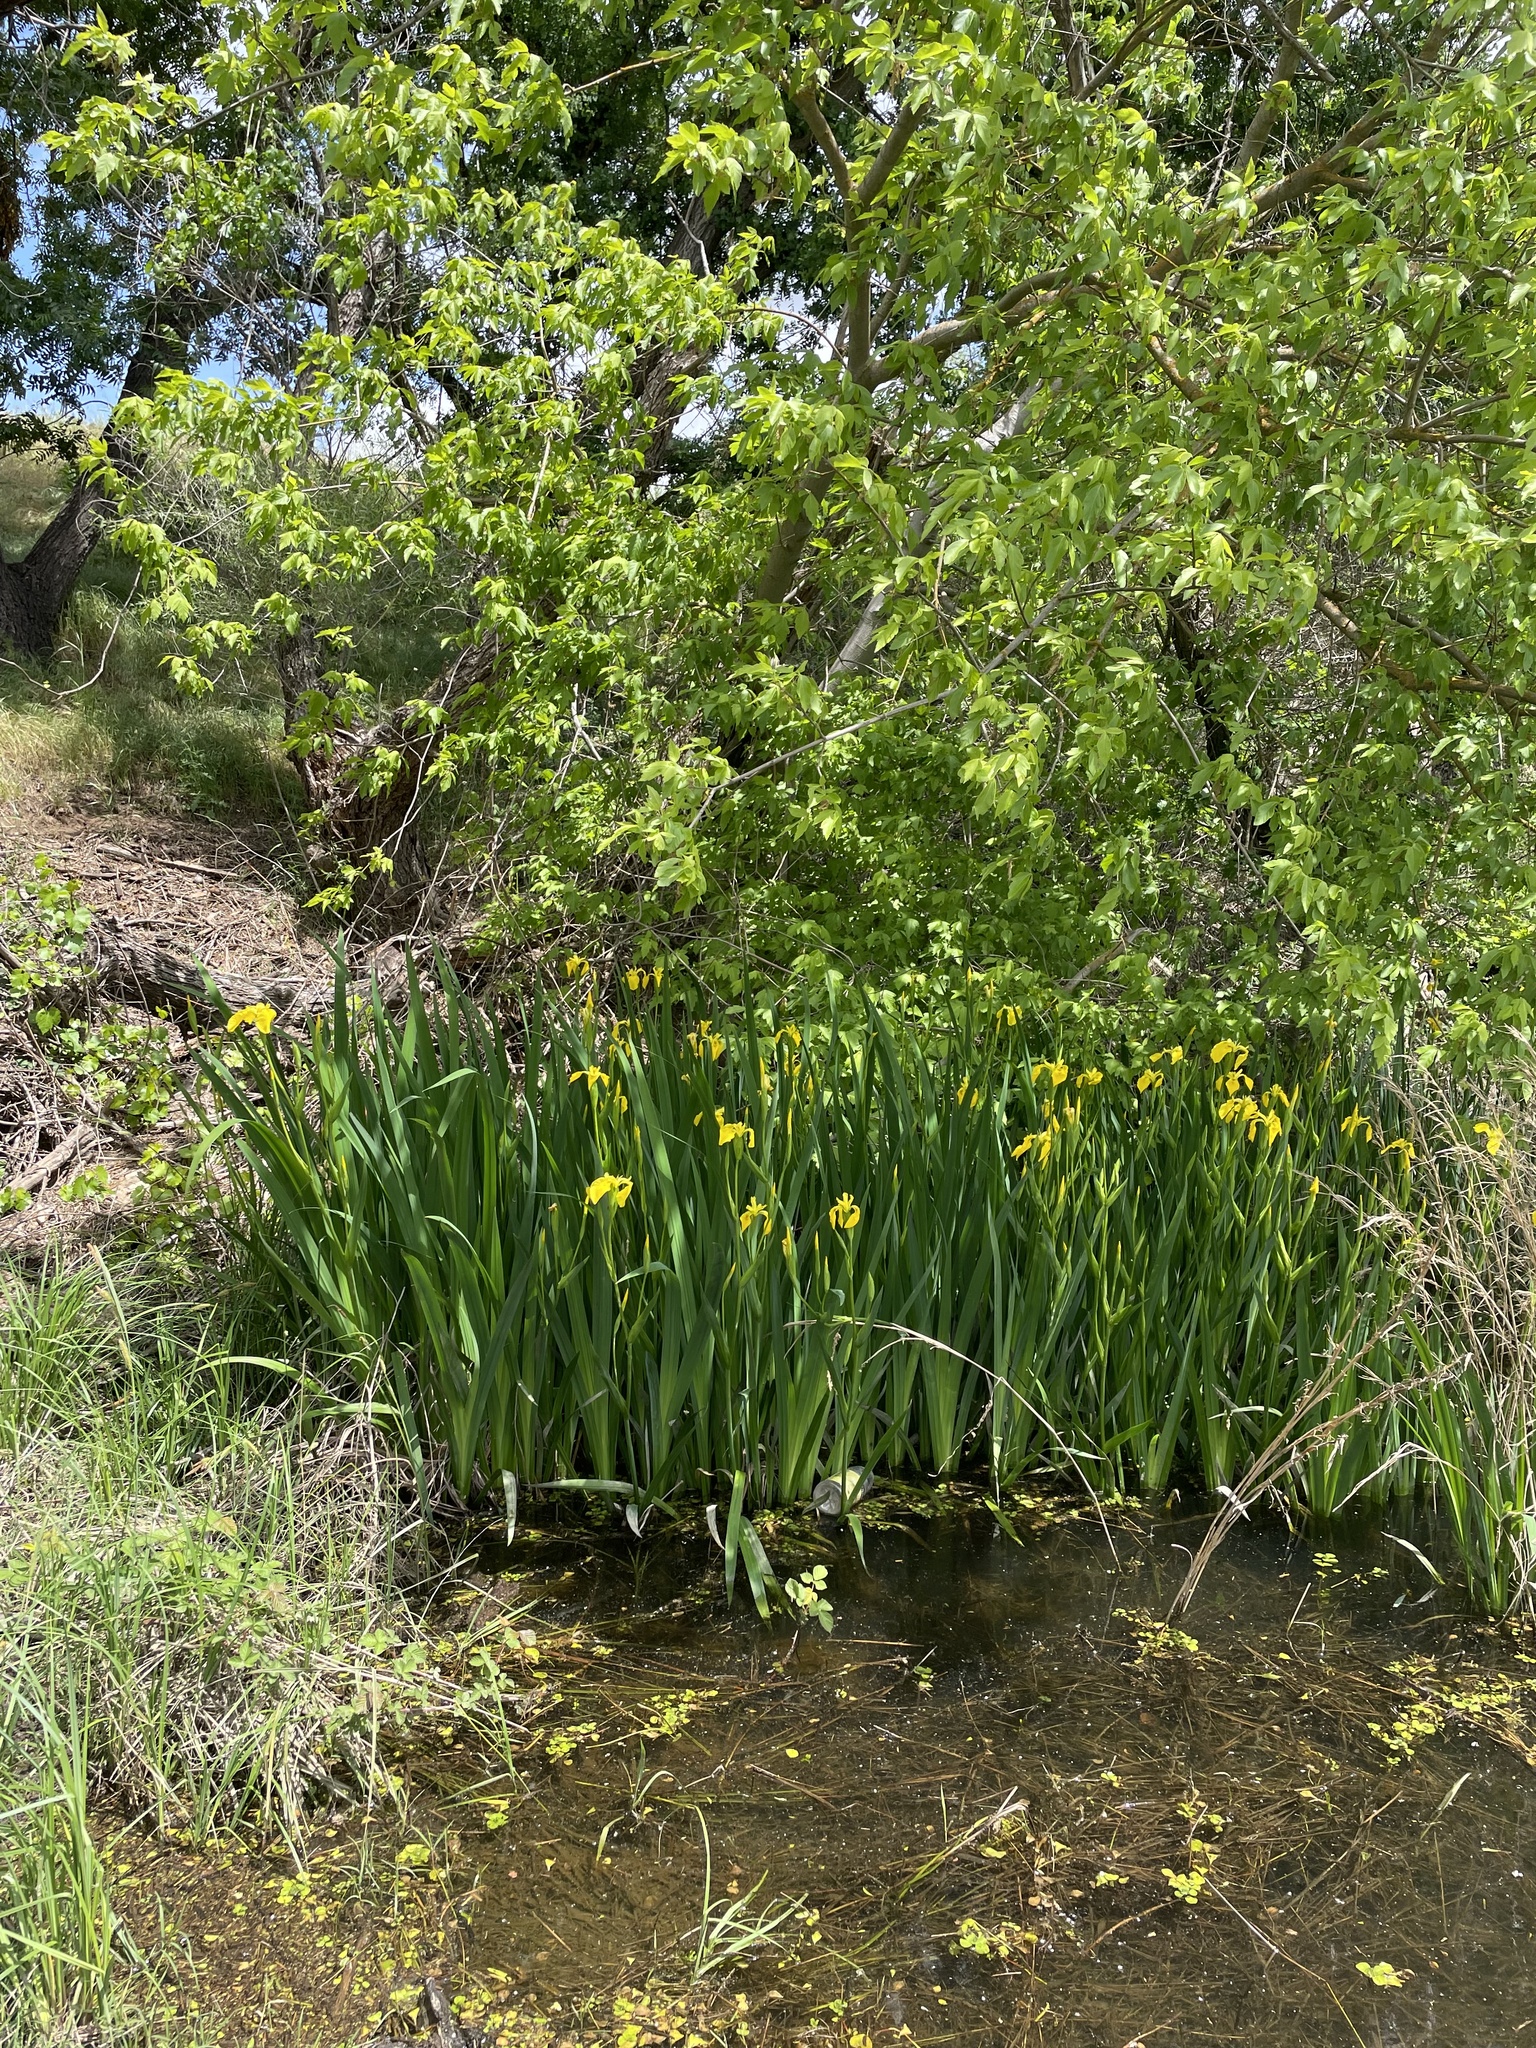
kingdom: Plantae
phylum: Tracheophyta
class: Liliopsida
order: Asparagales
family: Iridaceae
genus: Iris
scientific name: Iris pseudacorus
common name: Yellow flag
